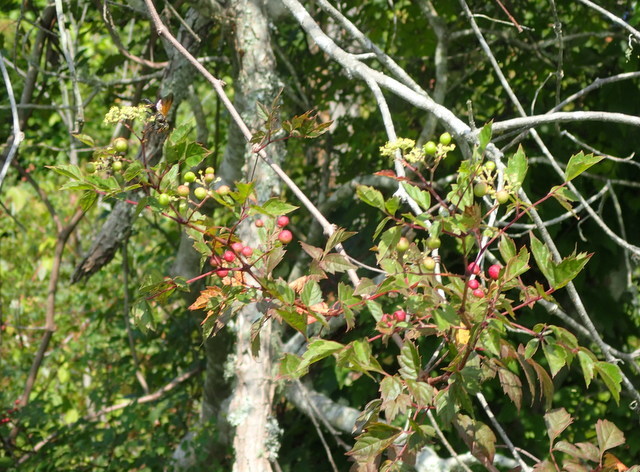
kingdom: Plantae
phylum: Tracheophyta
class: Magnoliopsida
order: Vitales
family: Vitaceae
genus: Nekemias
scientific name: Nekemias arborea
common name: Peppervine
